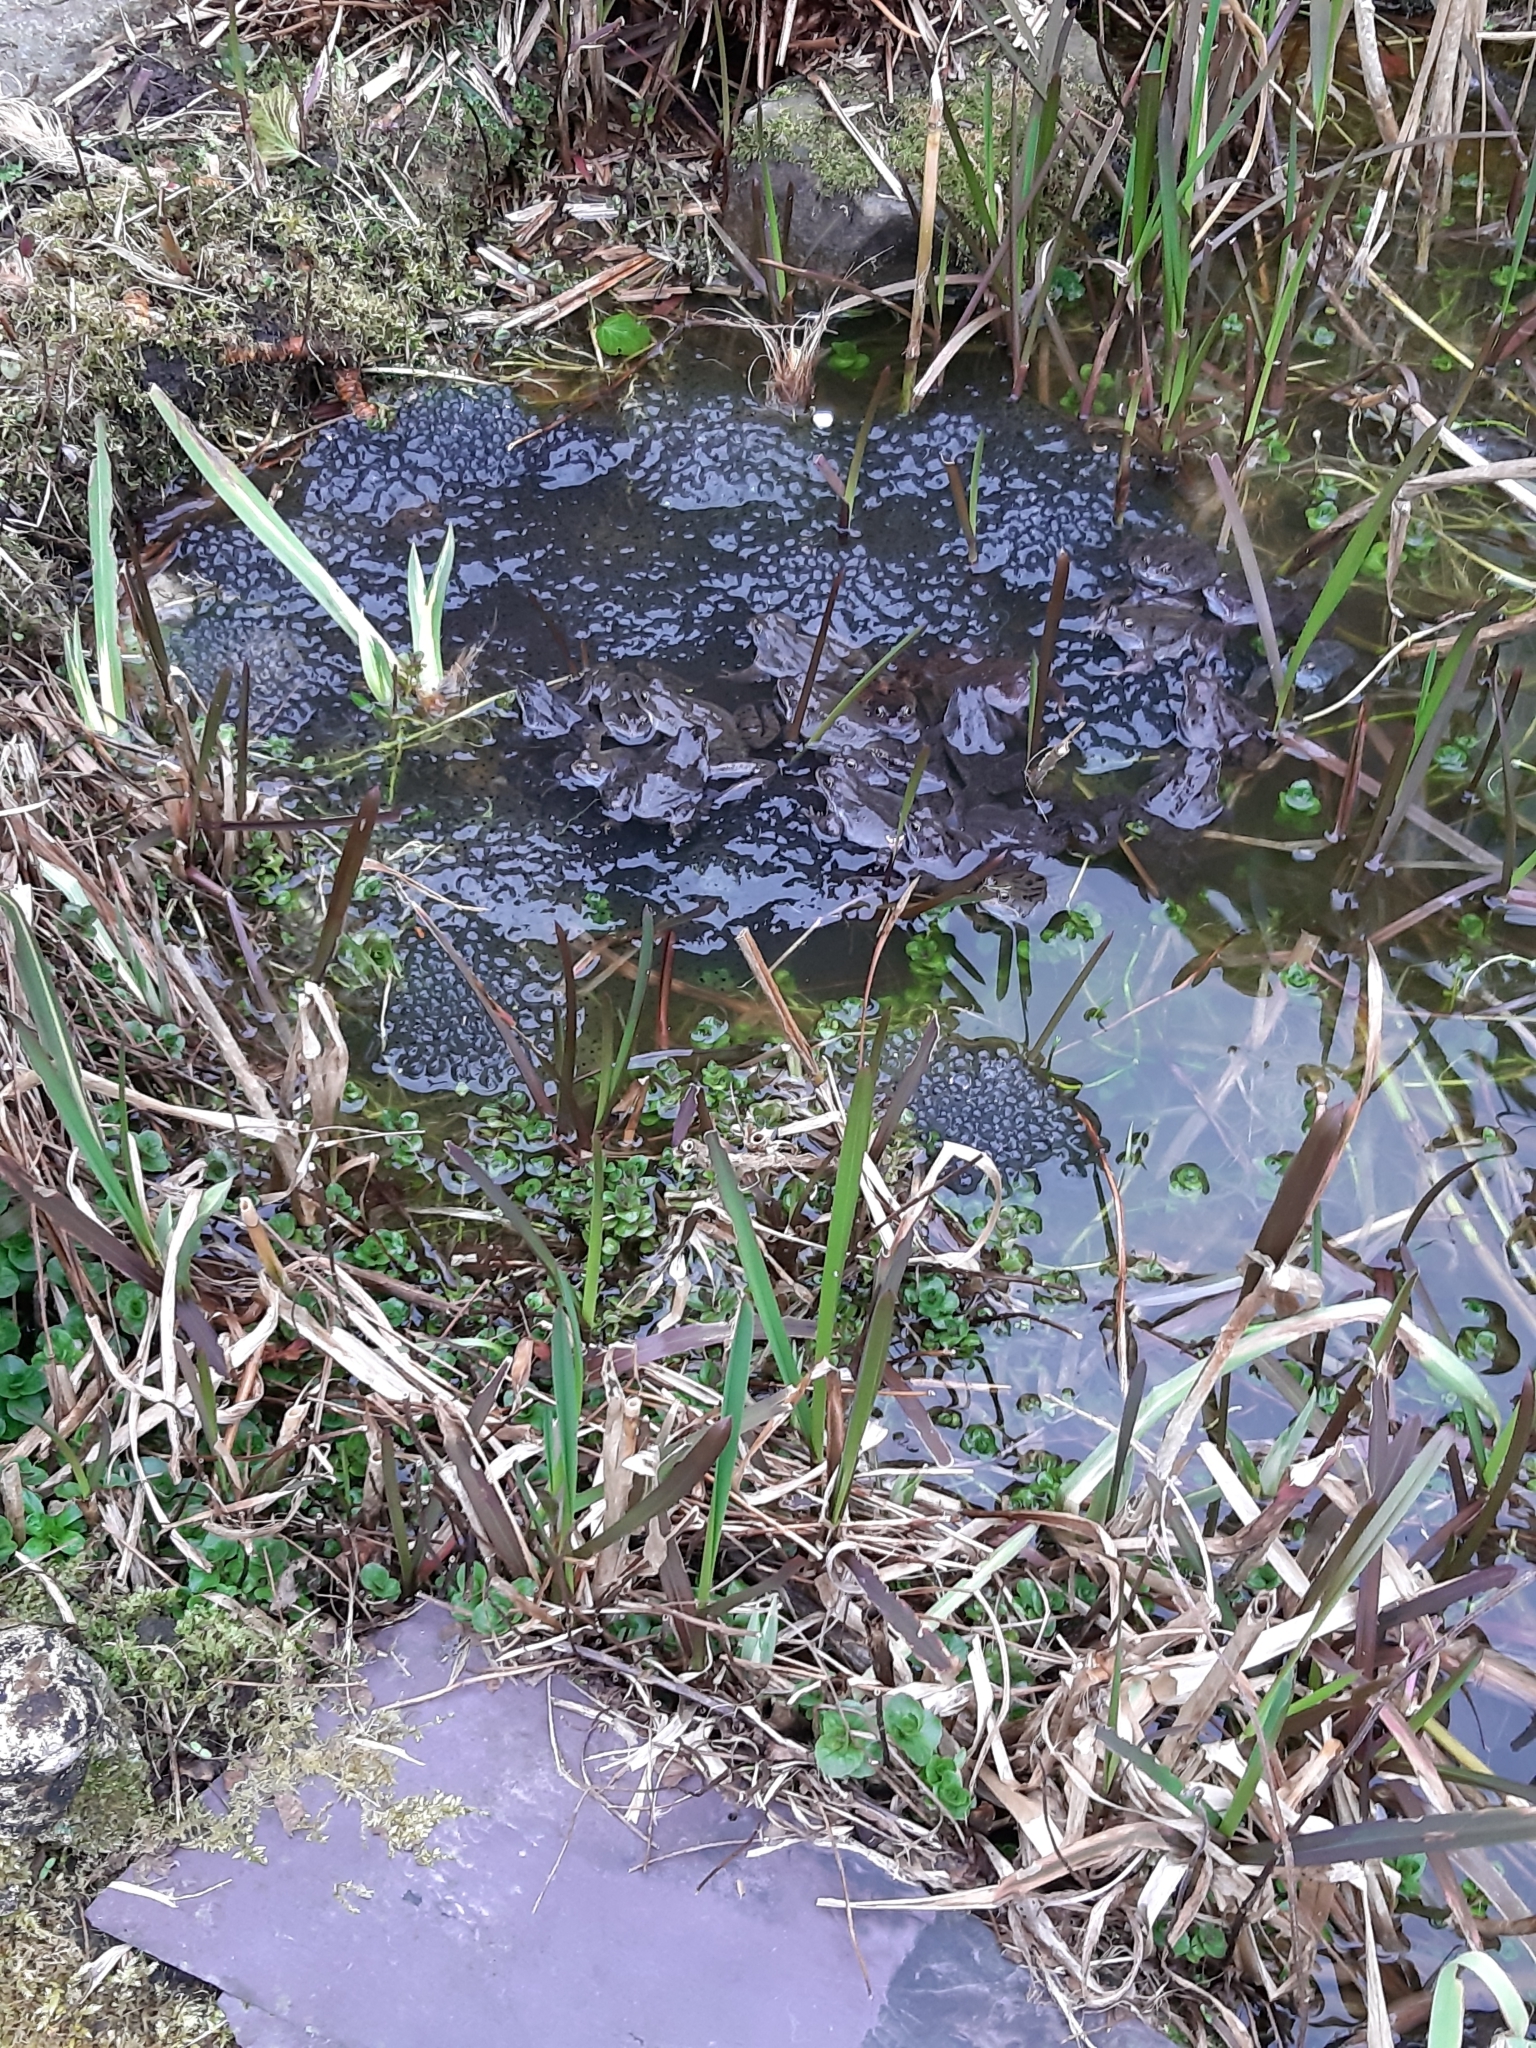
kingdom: Animalia
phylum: Chordata
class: Amphibia
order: Anura
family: Ranidae
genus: Rana
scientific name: Rana temporaria
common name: Common frog
